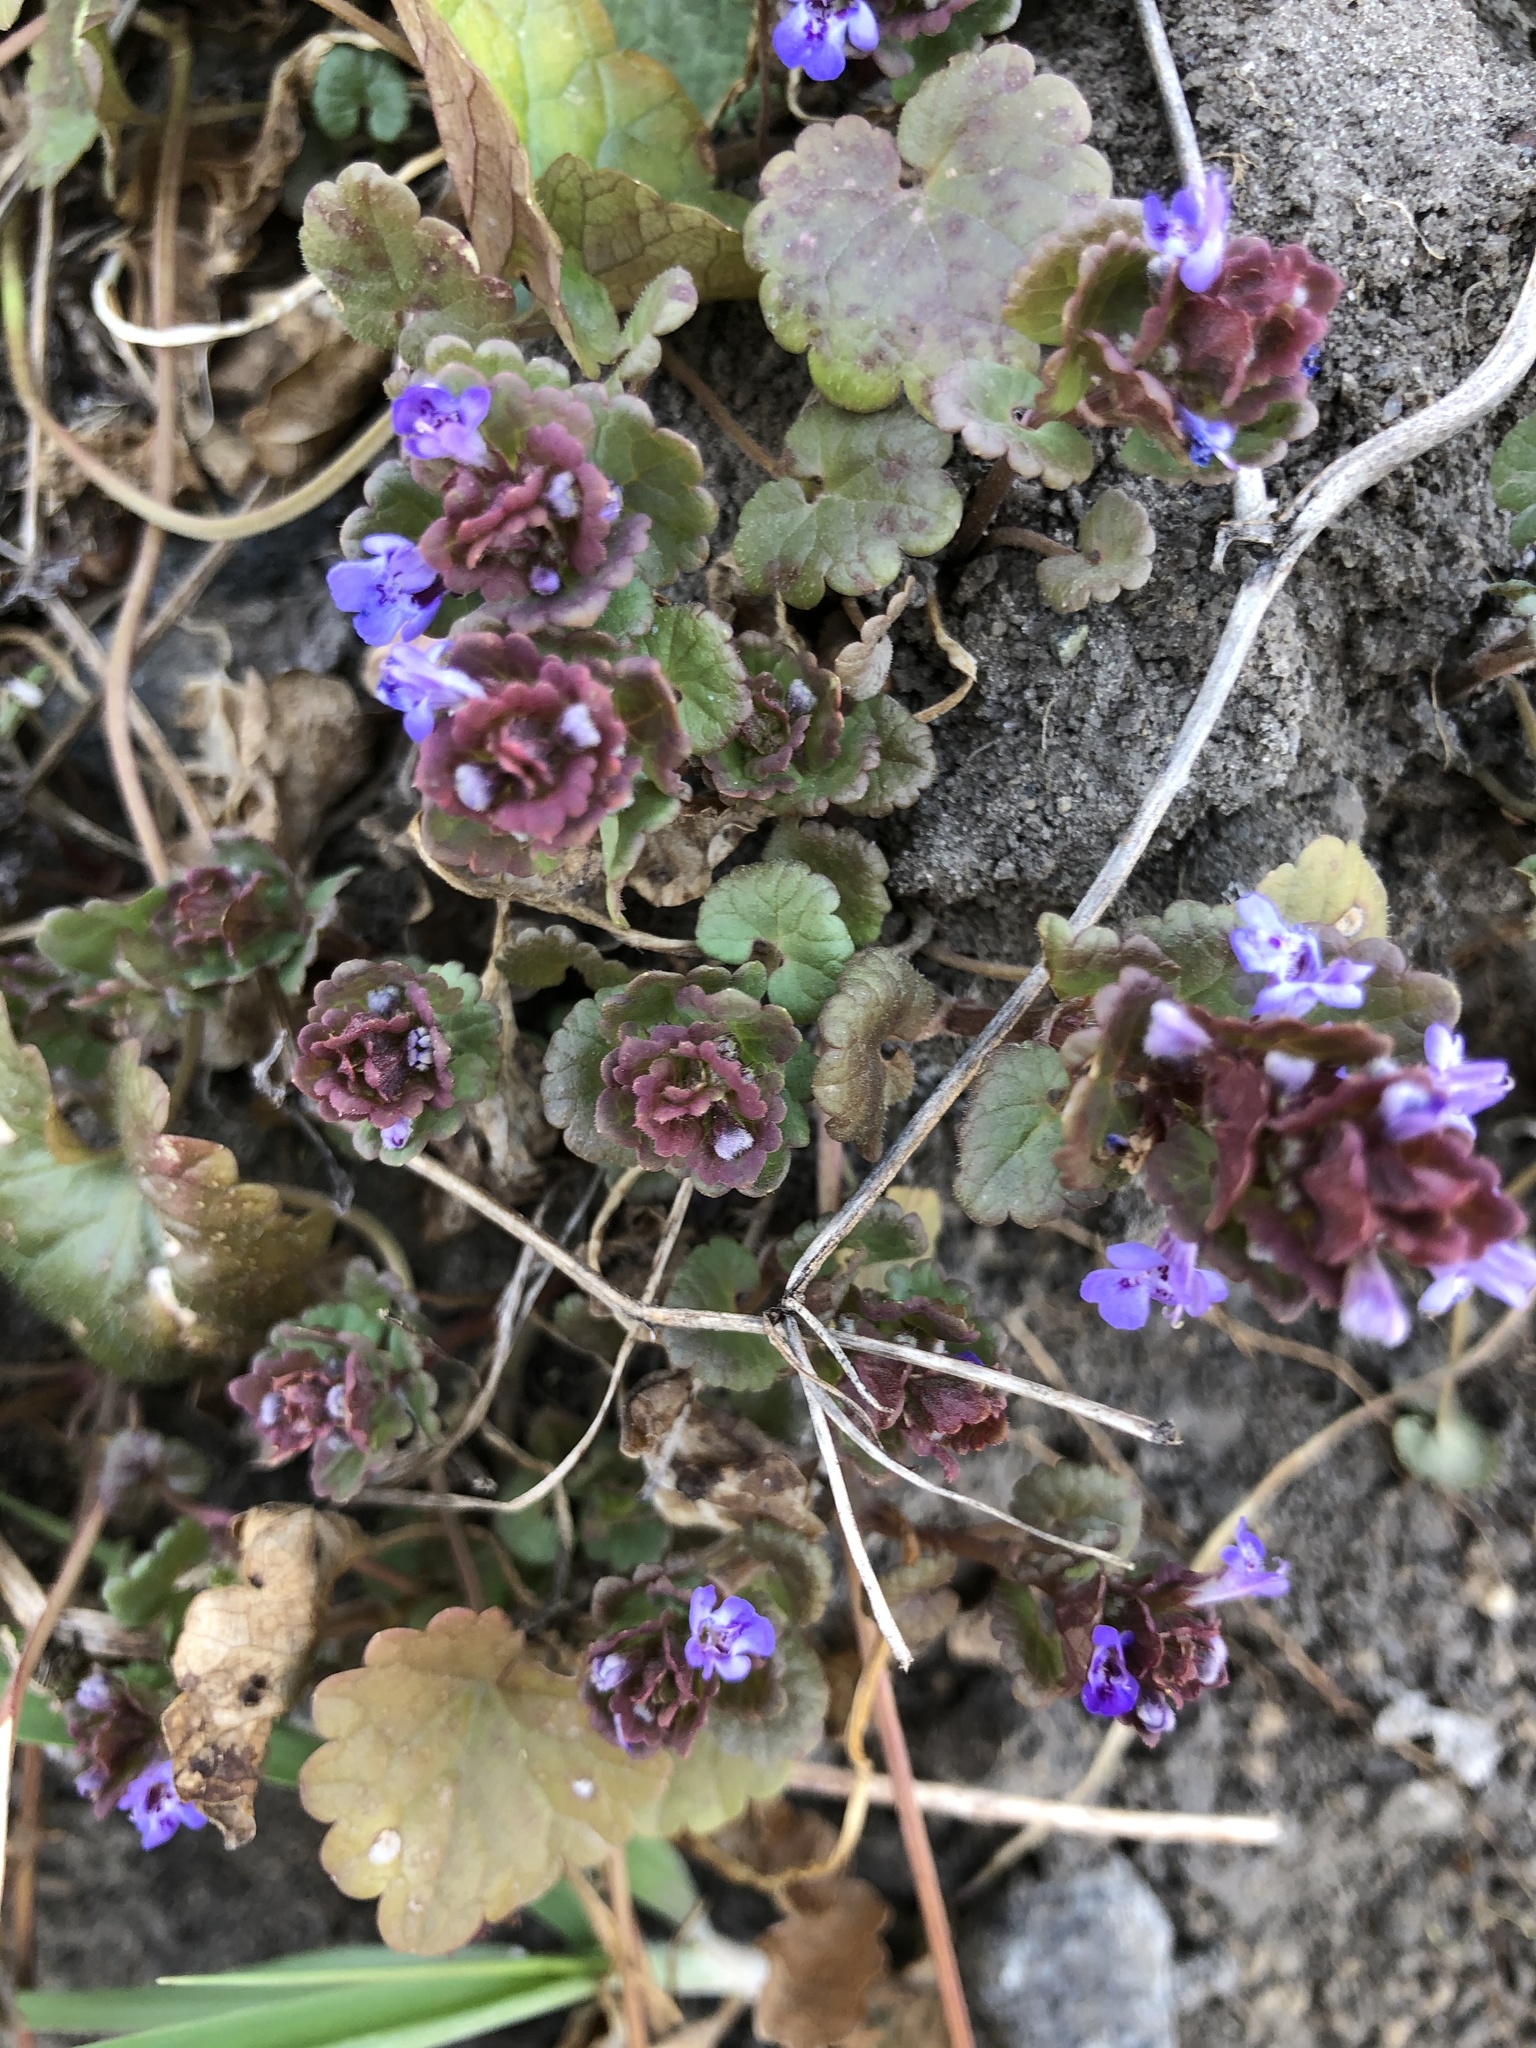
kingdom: Plantae
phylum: Tracheophyta
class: Magnoliopsida
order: Lamiales
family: Lamiaceae
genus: Glechoma
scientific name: Glechoma hederacea
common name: Ground ivy
